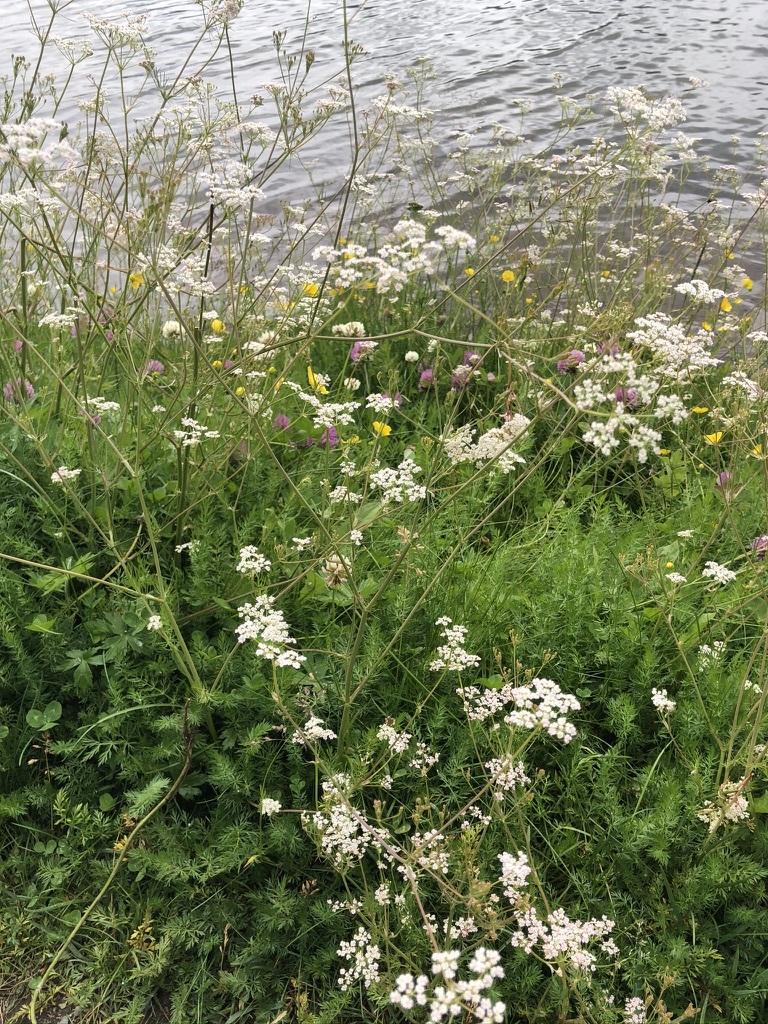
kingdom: Plantae
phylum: Tracheophyta
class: Magnoliopsida
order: Apiales
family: Apiaceae
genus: Carum
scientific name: Carum carvi
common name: Caraway
